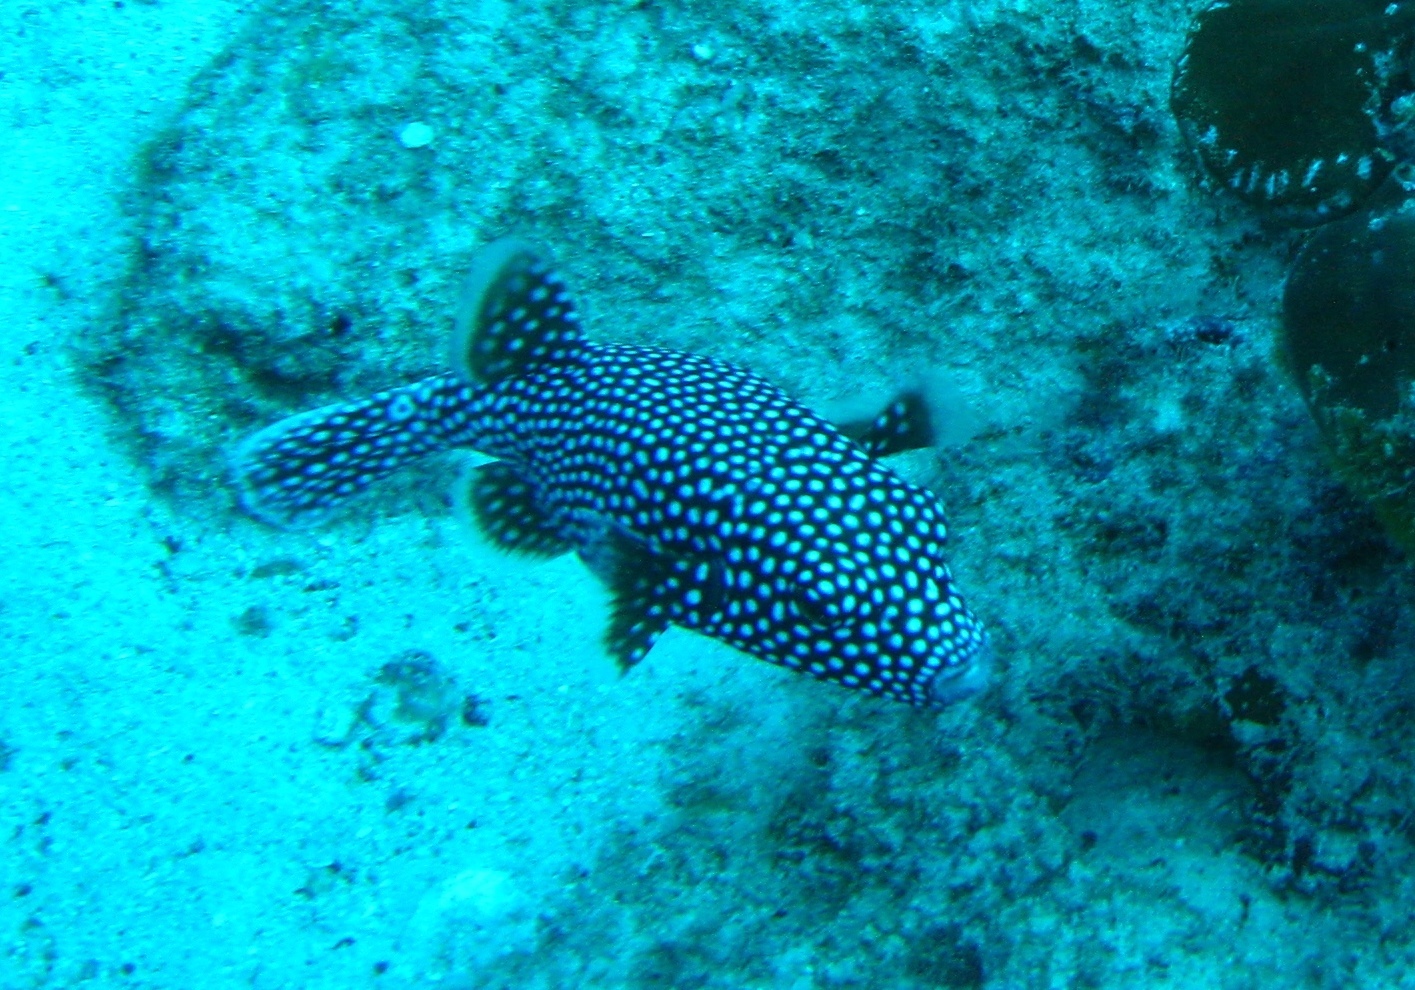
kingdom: Animalia
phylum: Chordata
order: Tetraodontiformes
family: Tetraodontidae
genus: Arothron
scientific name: Arothron meleagris
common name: Guinea-fowl pufferfish
